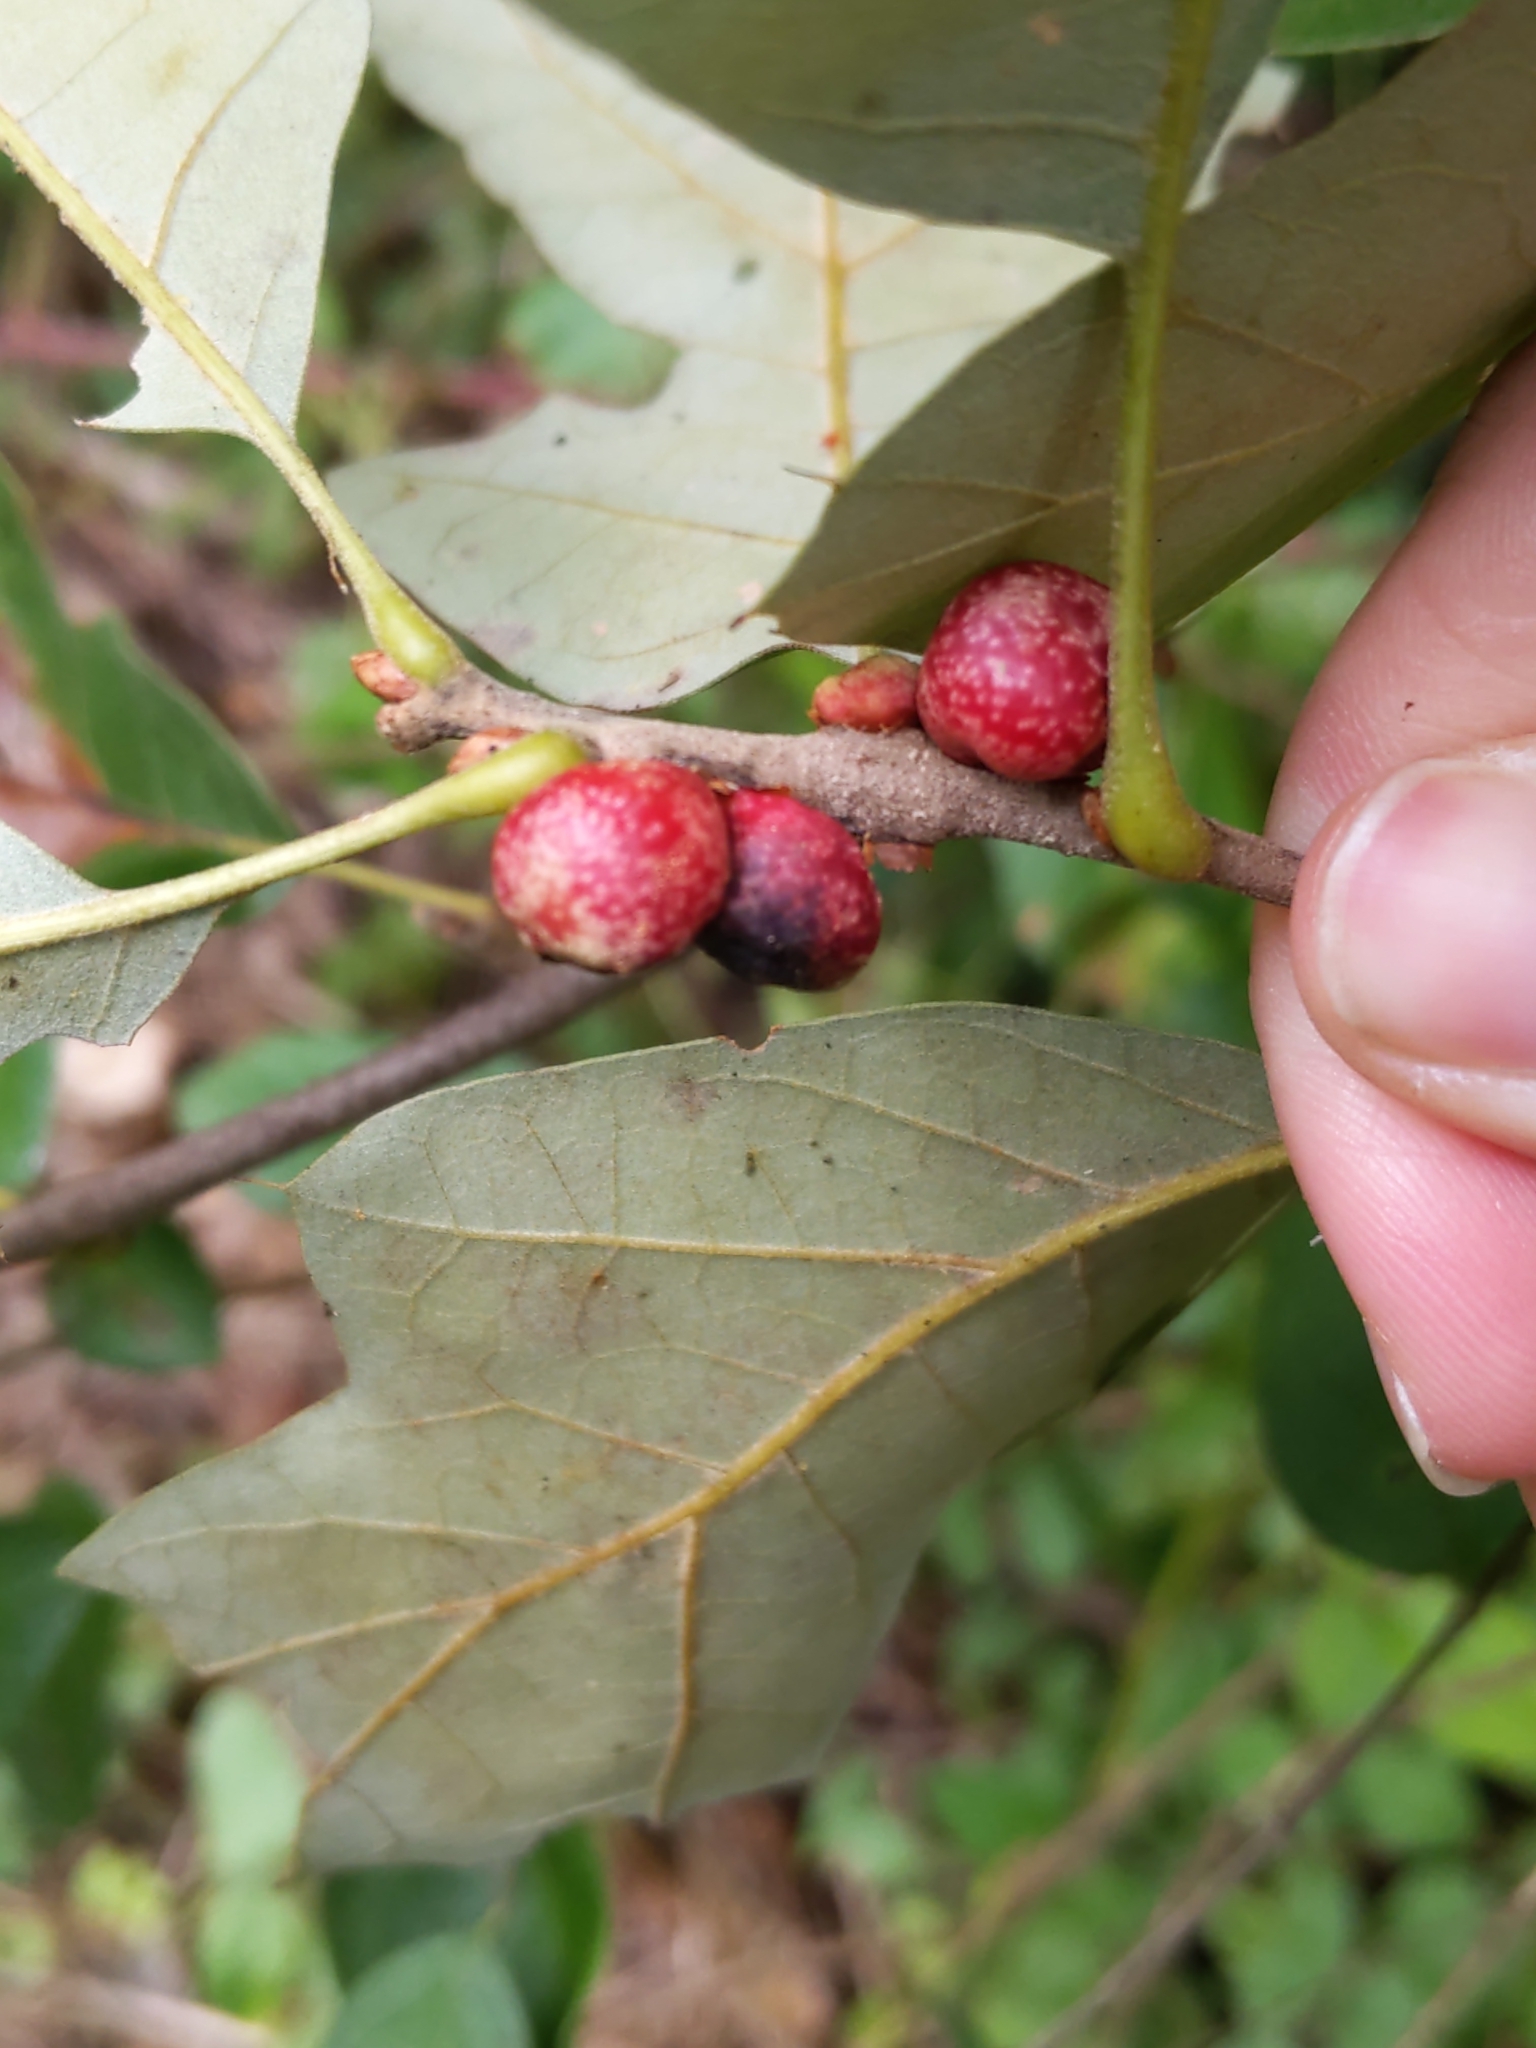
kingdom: Animalia
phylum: Arthropoda
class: Insecta
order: Hymenoptera
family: Cynipidae
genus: Kokkocynips
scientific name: Kokkocynips imbricariae
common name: Banded bullet gall wasp
